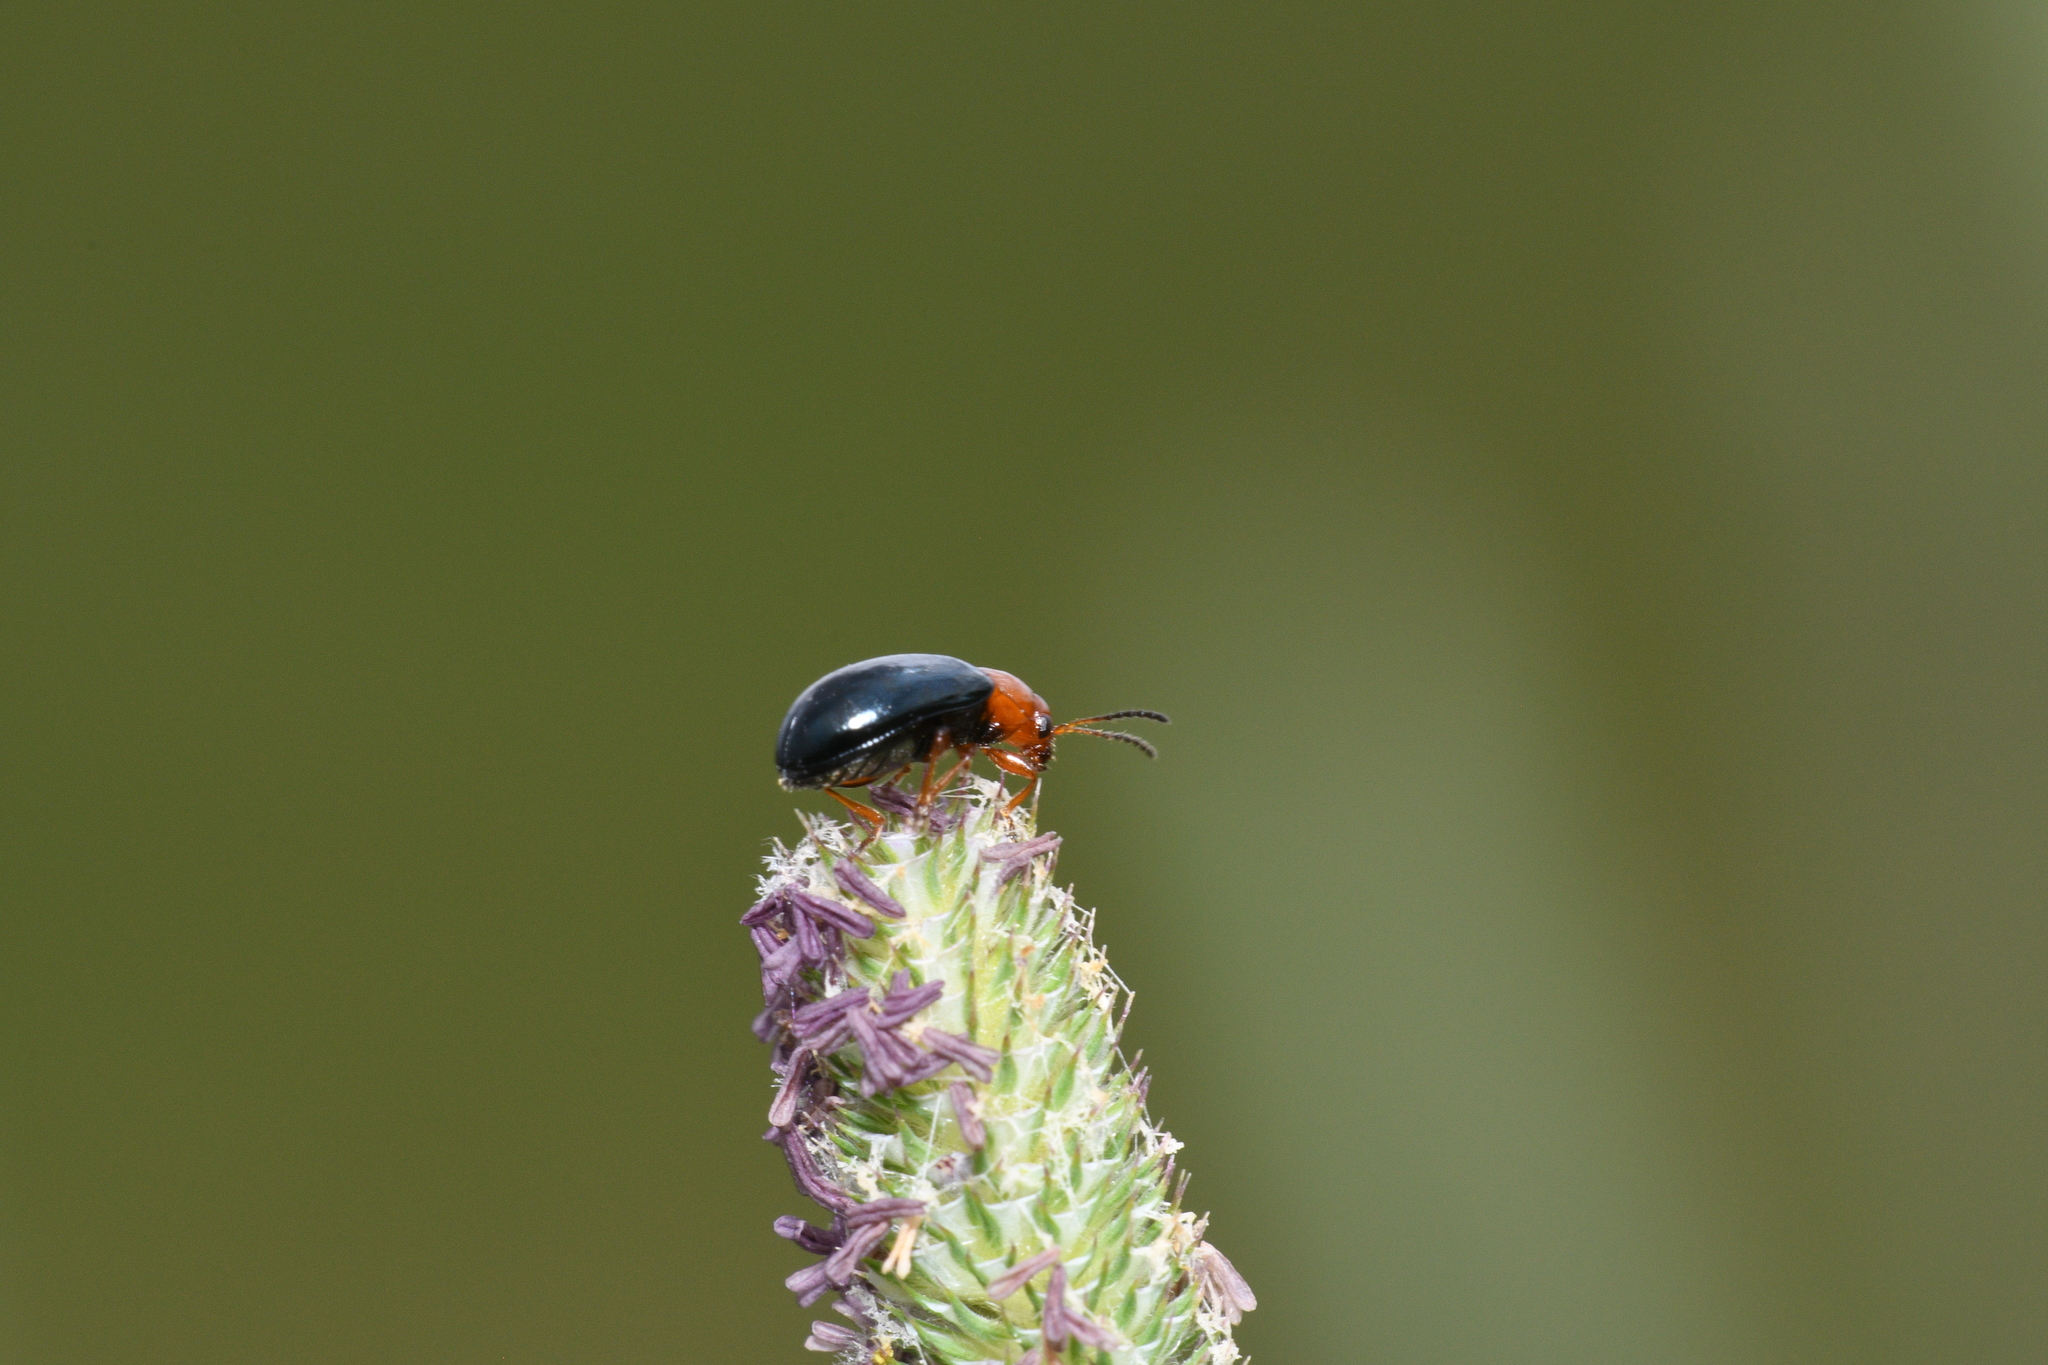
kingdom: Animalia
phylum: Arthropoda
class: Insecta
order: Coleoptera
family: Chrysomelidae
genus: Podagrica
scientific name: Podagrica fuscicornis
